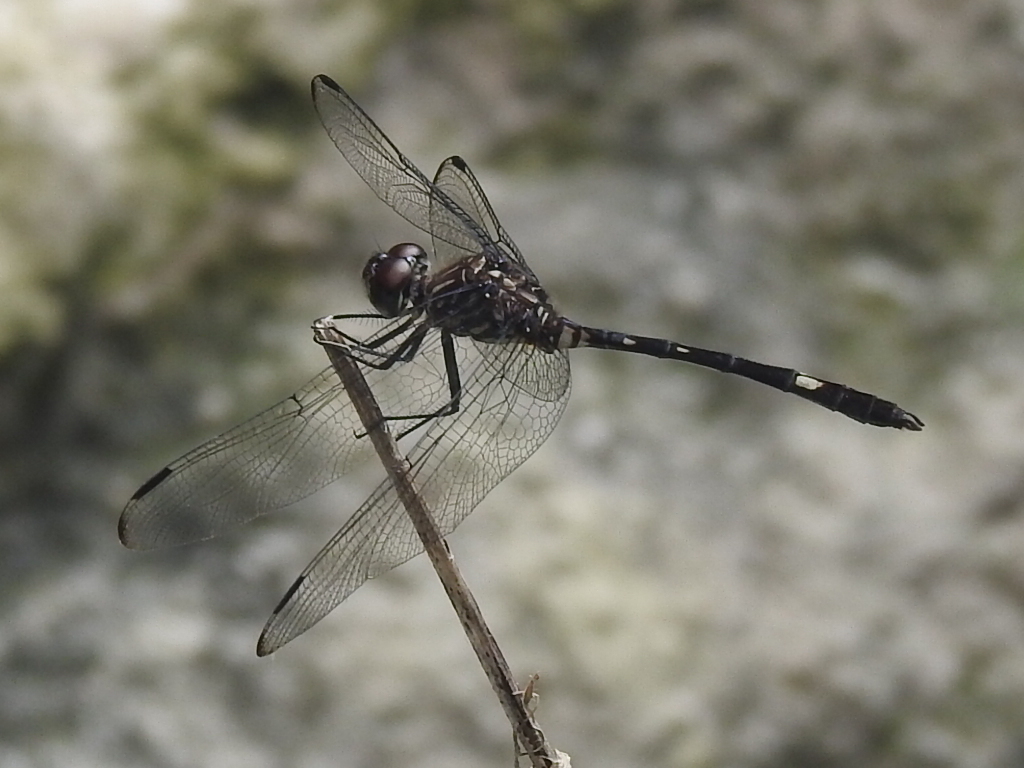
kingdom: Animalia
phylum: Arthropoda
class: Insecta
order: Odonata
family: Libellulidae
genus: Dythemis
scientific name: Dythemis velox
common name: Swift setwing
